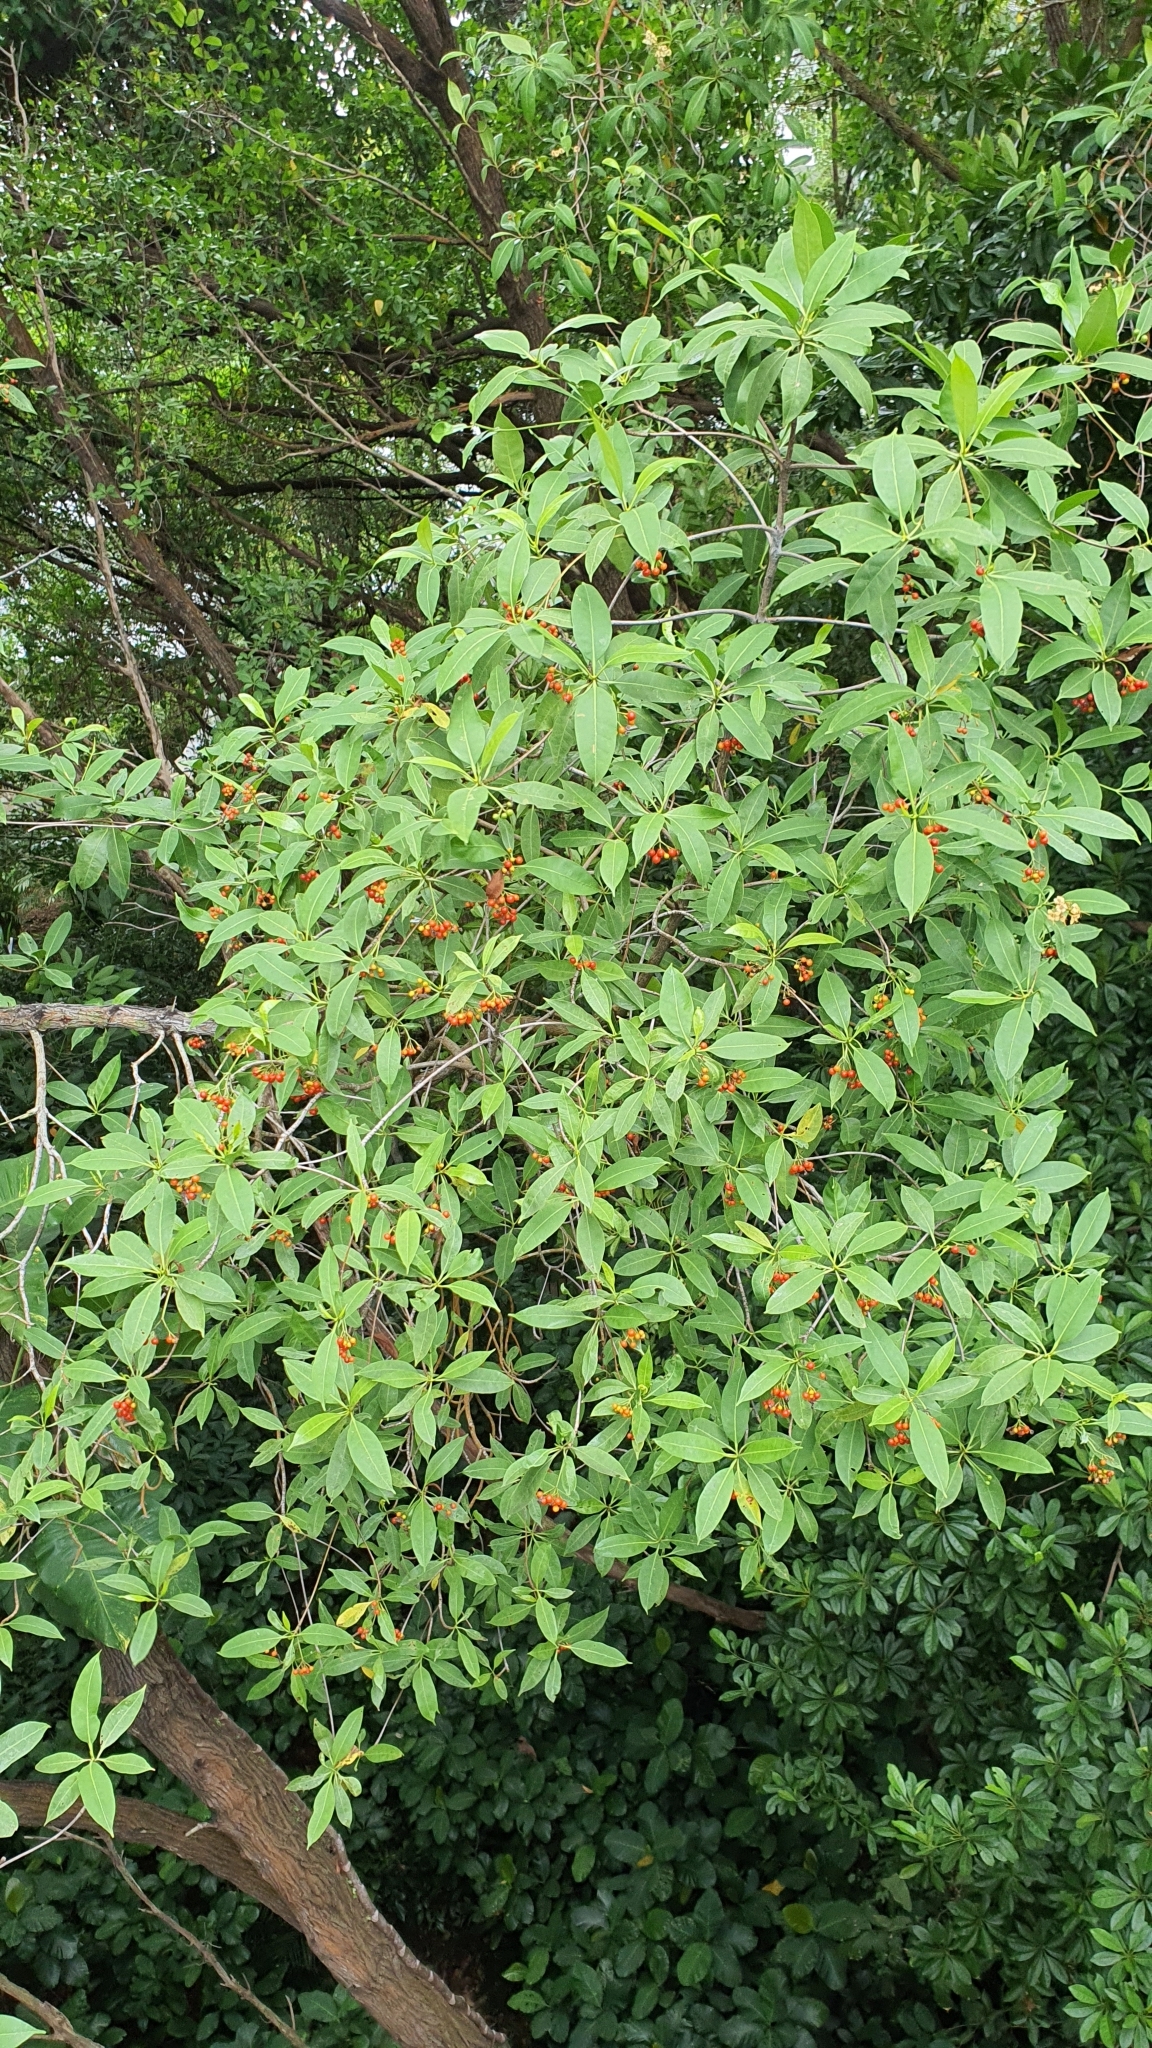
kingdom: Plantae
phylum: Tracheophyta
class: Magnoliopsida
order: Gentianales
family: Gentianaceae
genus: Cyrtophyllum
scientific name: Cyrtophyllum fragrans
